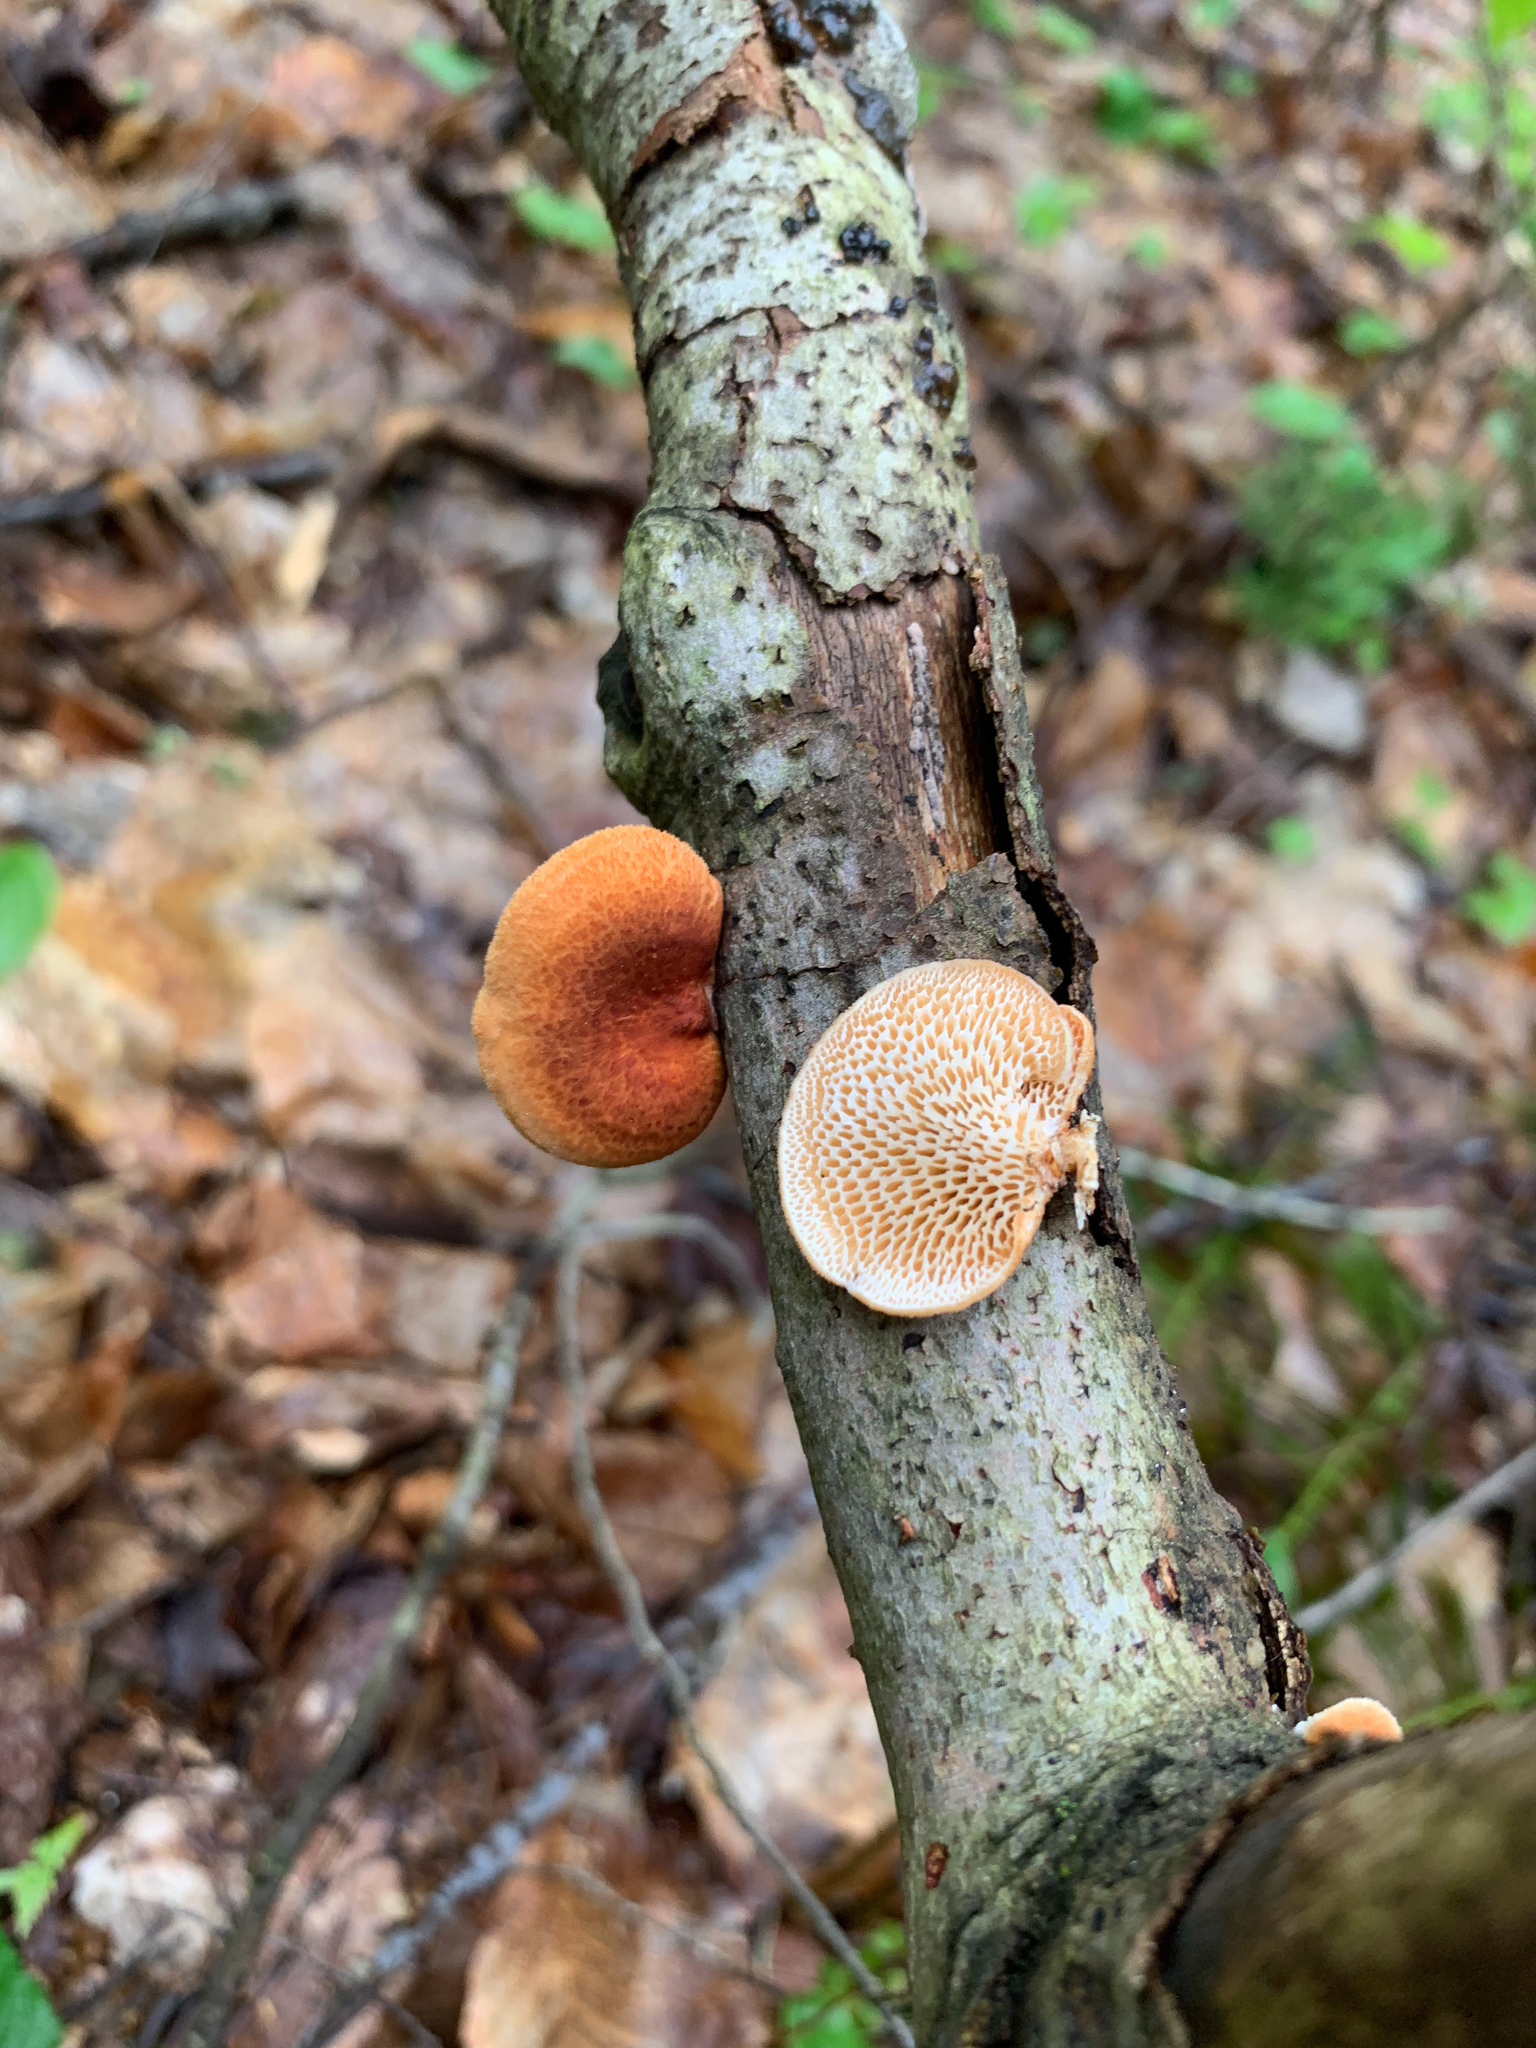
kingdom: Fungi
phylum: Basidiomycota
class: Agaricomycetes
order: Polyporales
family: Polyporaceae
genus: Neofavolus
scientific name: Neofavolus alveolaris
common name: Hexagonal-pored polypore
